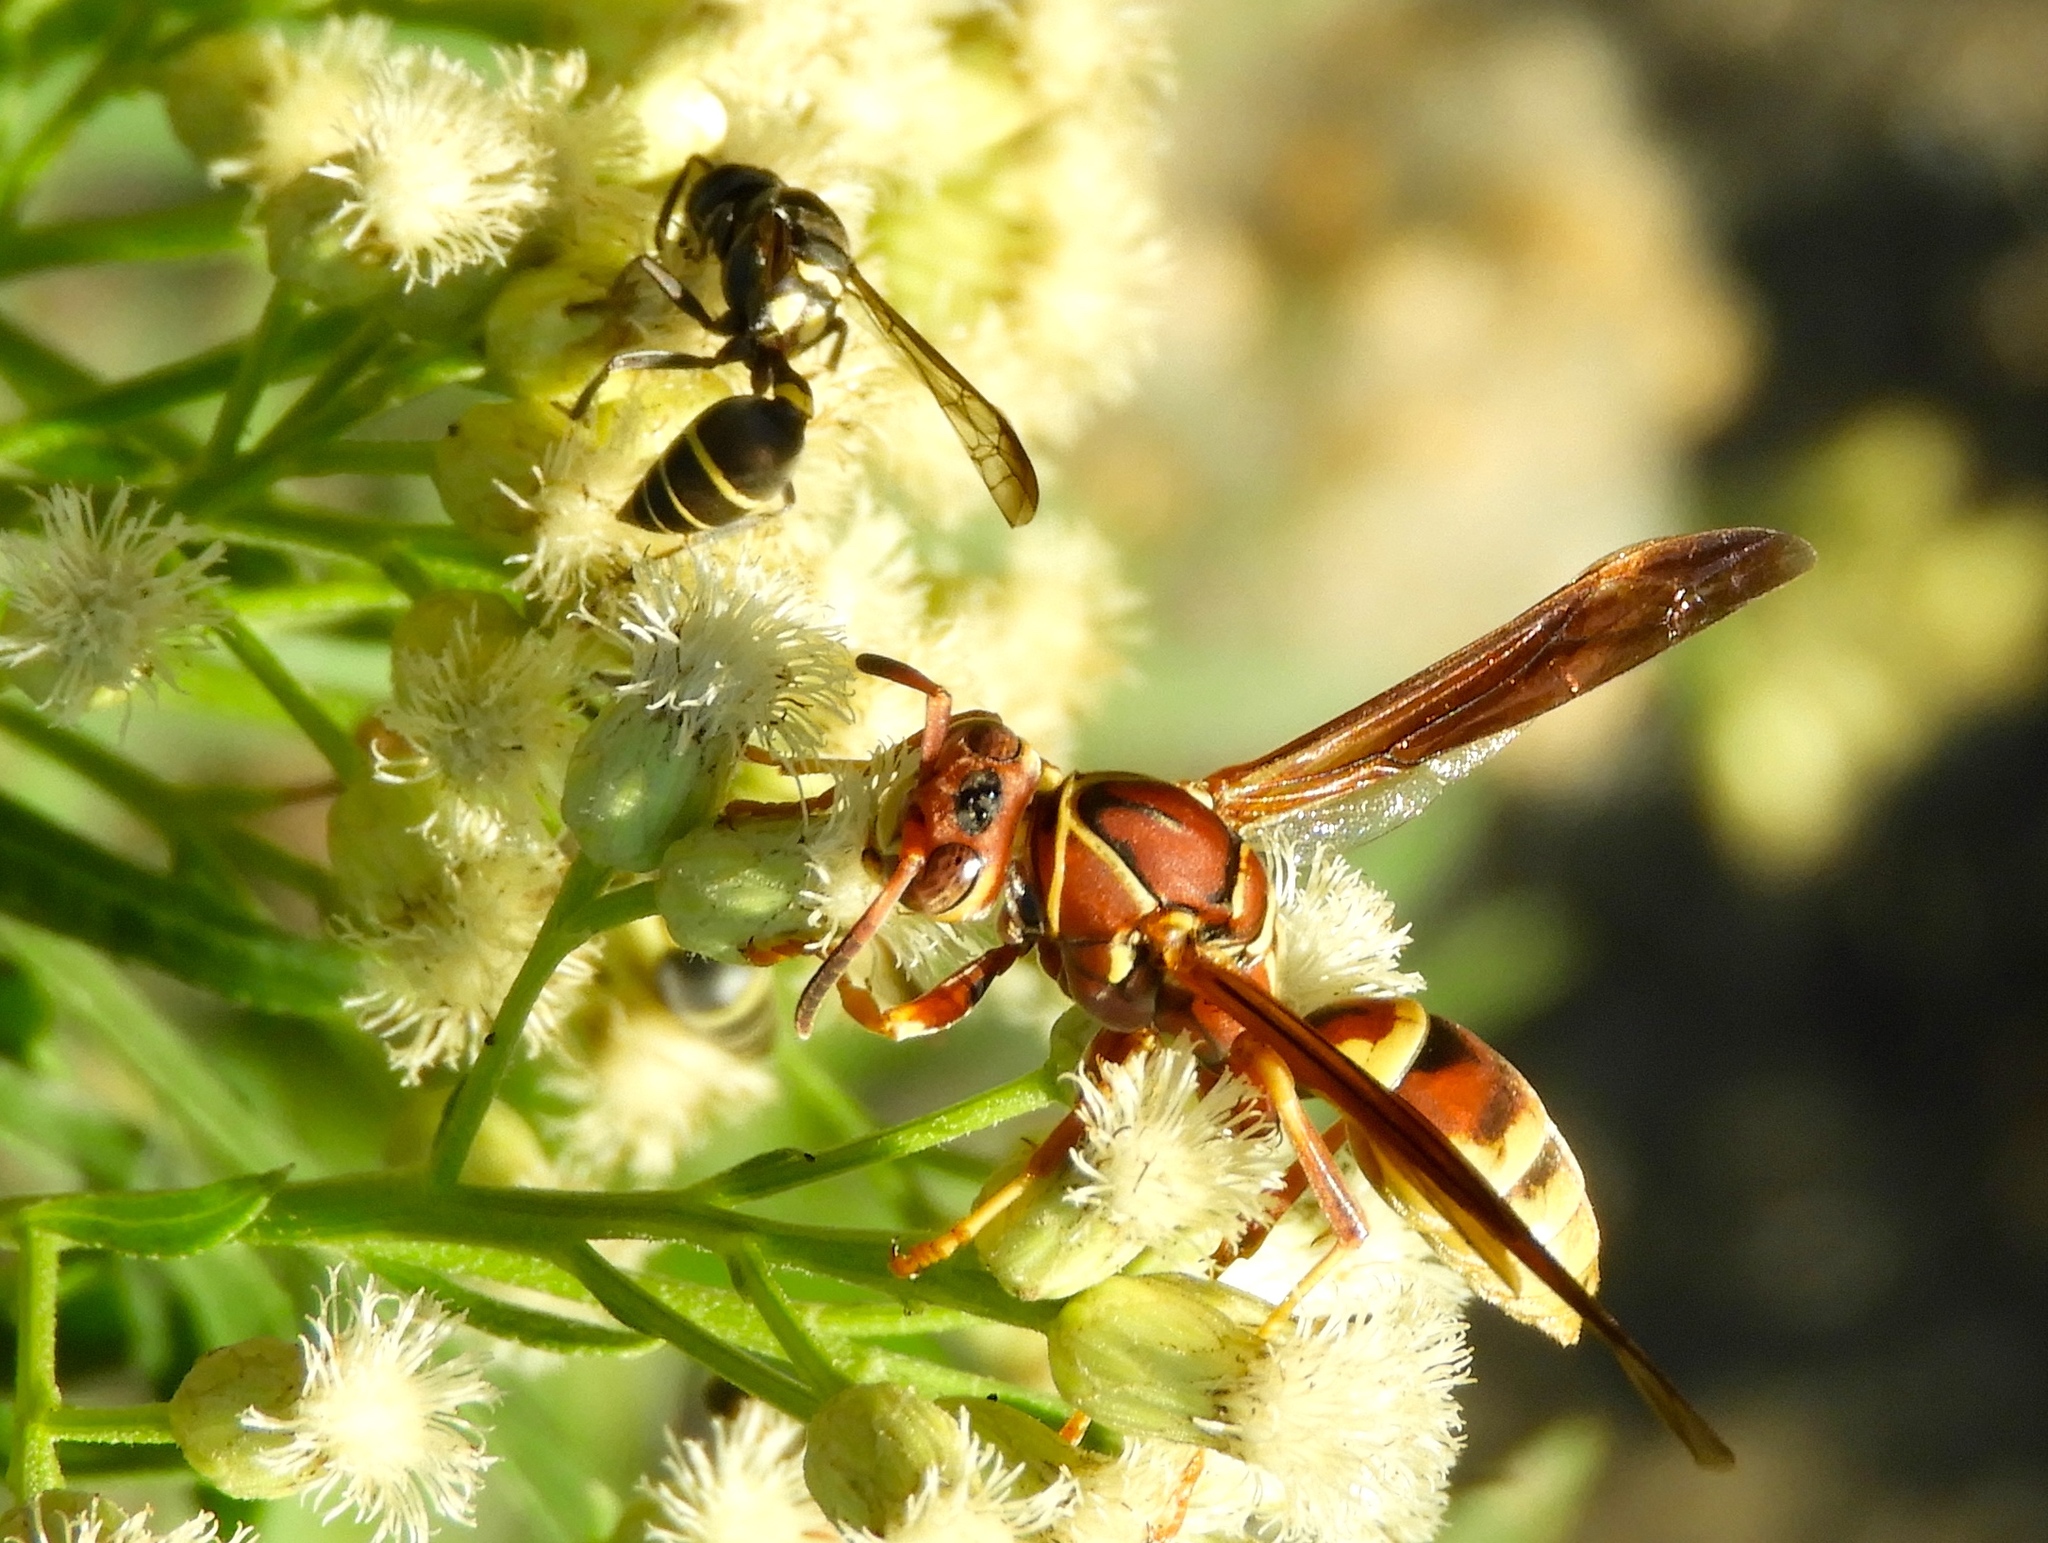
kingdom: Animalia
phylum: Arthropoda
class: Insecta
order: Hymenoptera
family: Eumenidae
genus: Polistes
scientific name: Polistes dorsalis
